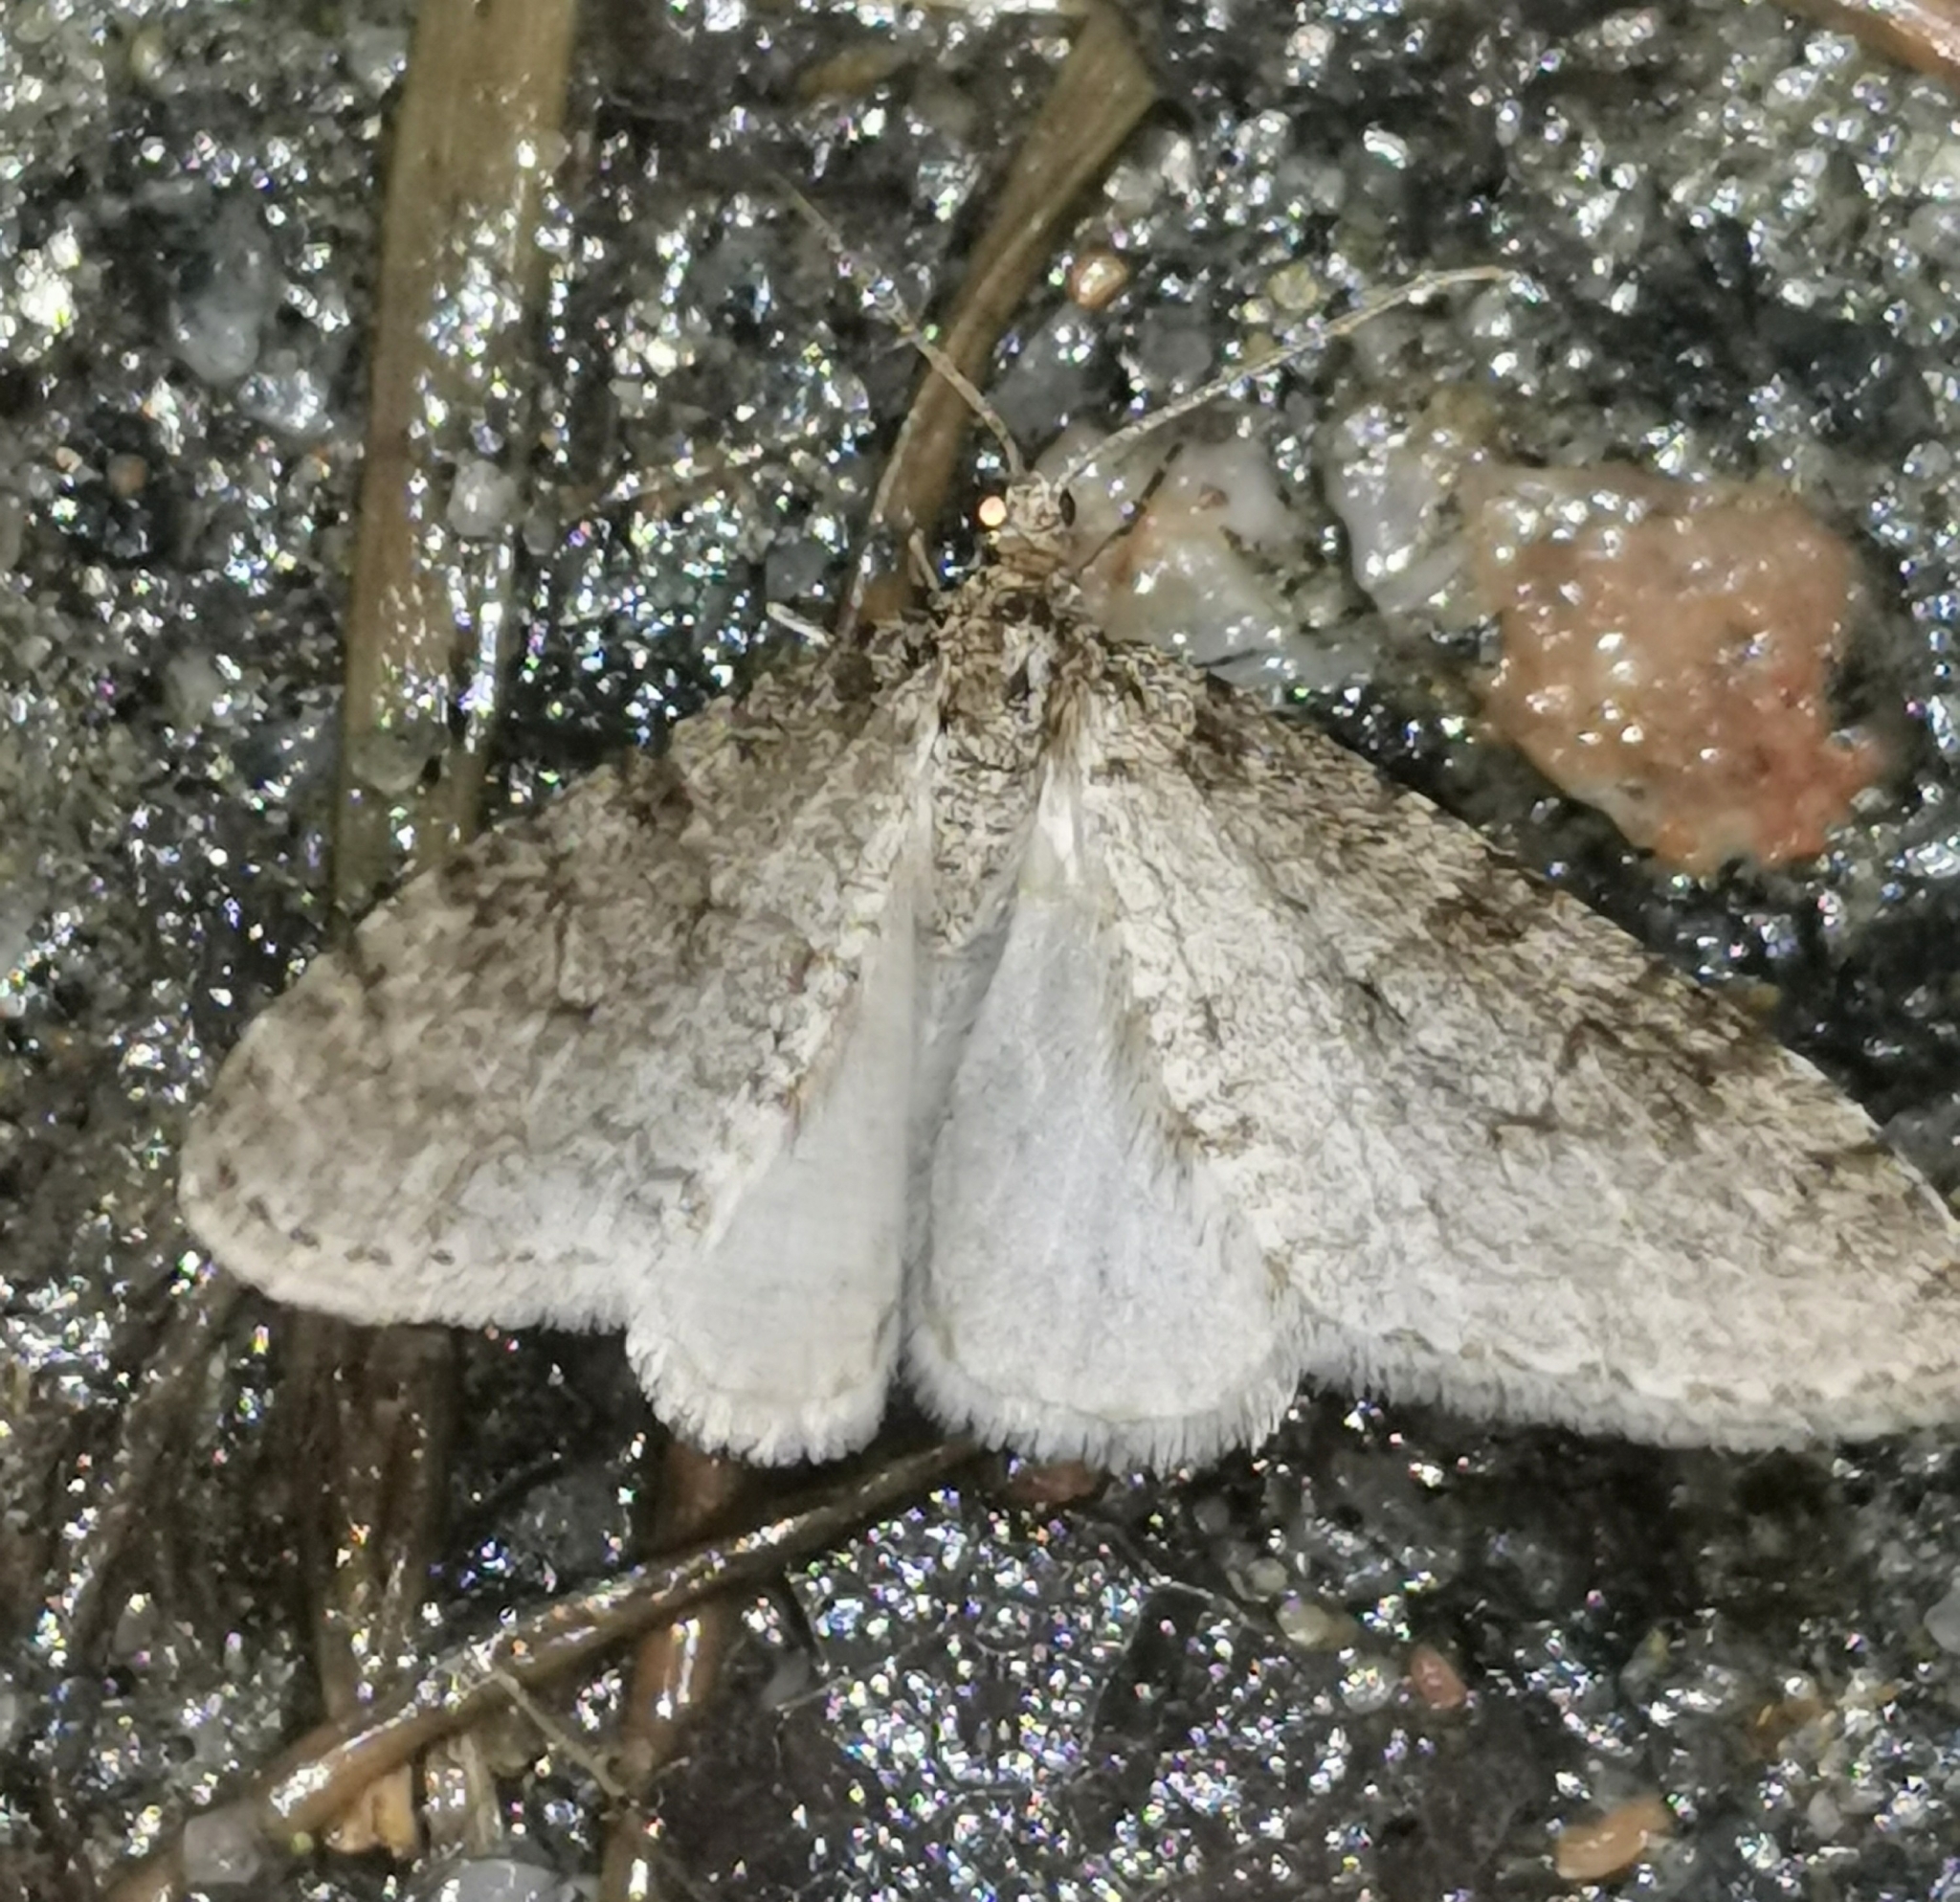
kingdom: Animalia
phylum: Arthropoda
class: Insecta
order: Lepidoptera
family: Geometridae
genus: Trichopteryx
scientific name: Trichopteryx carpinata
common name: Early tooth-striped
